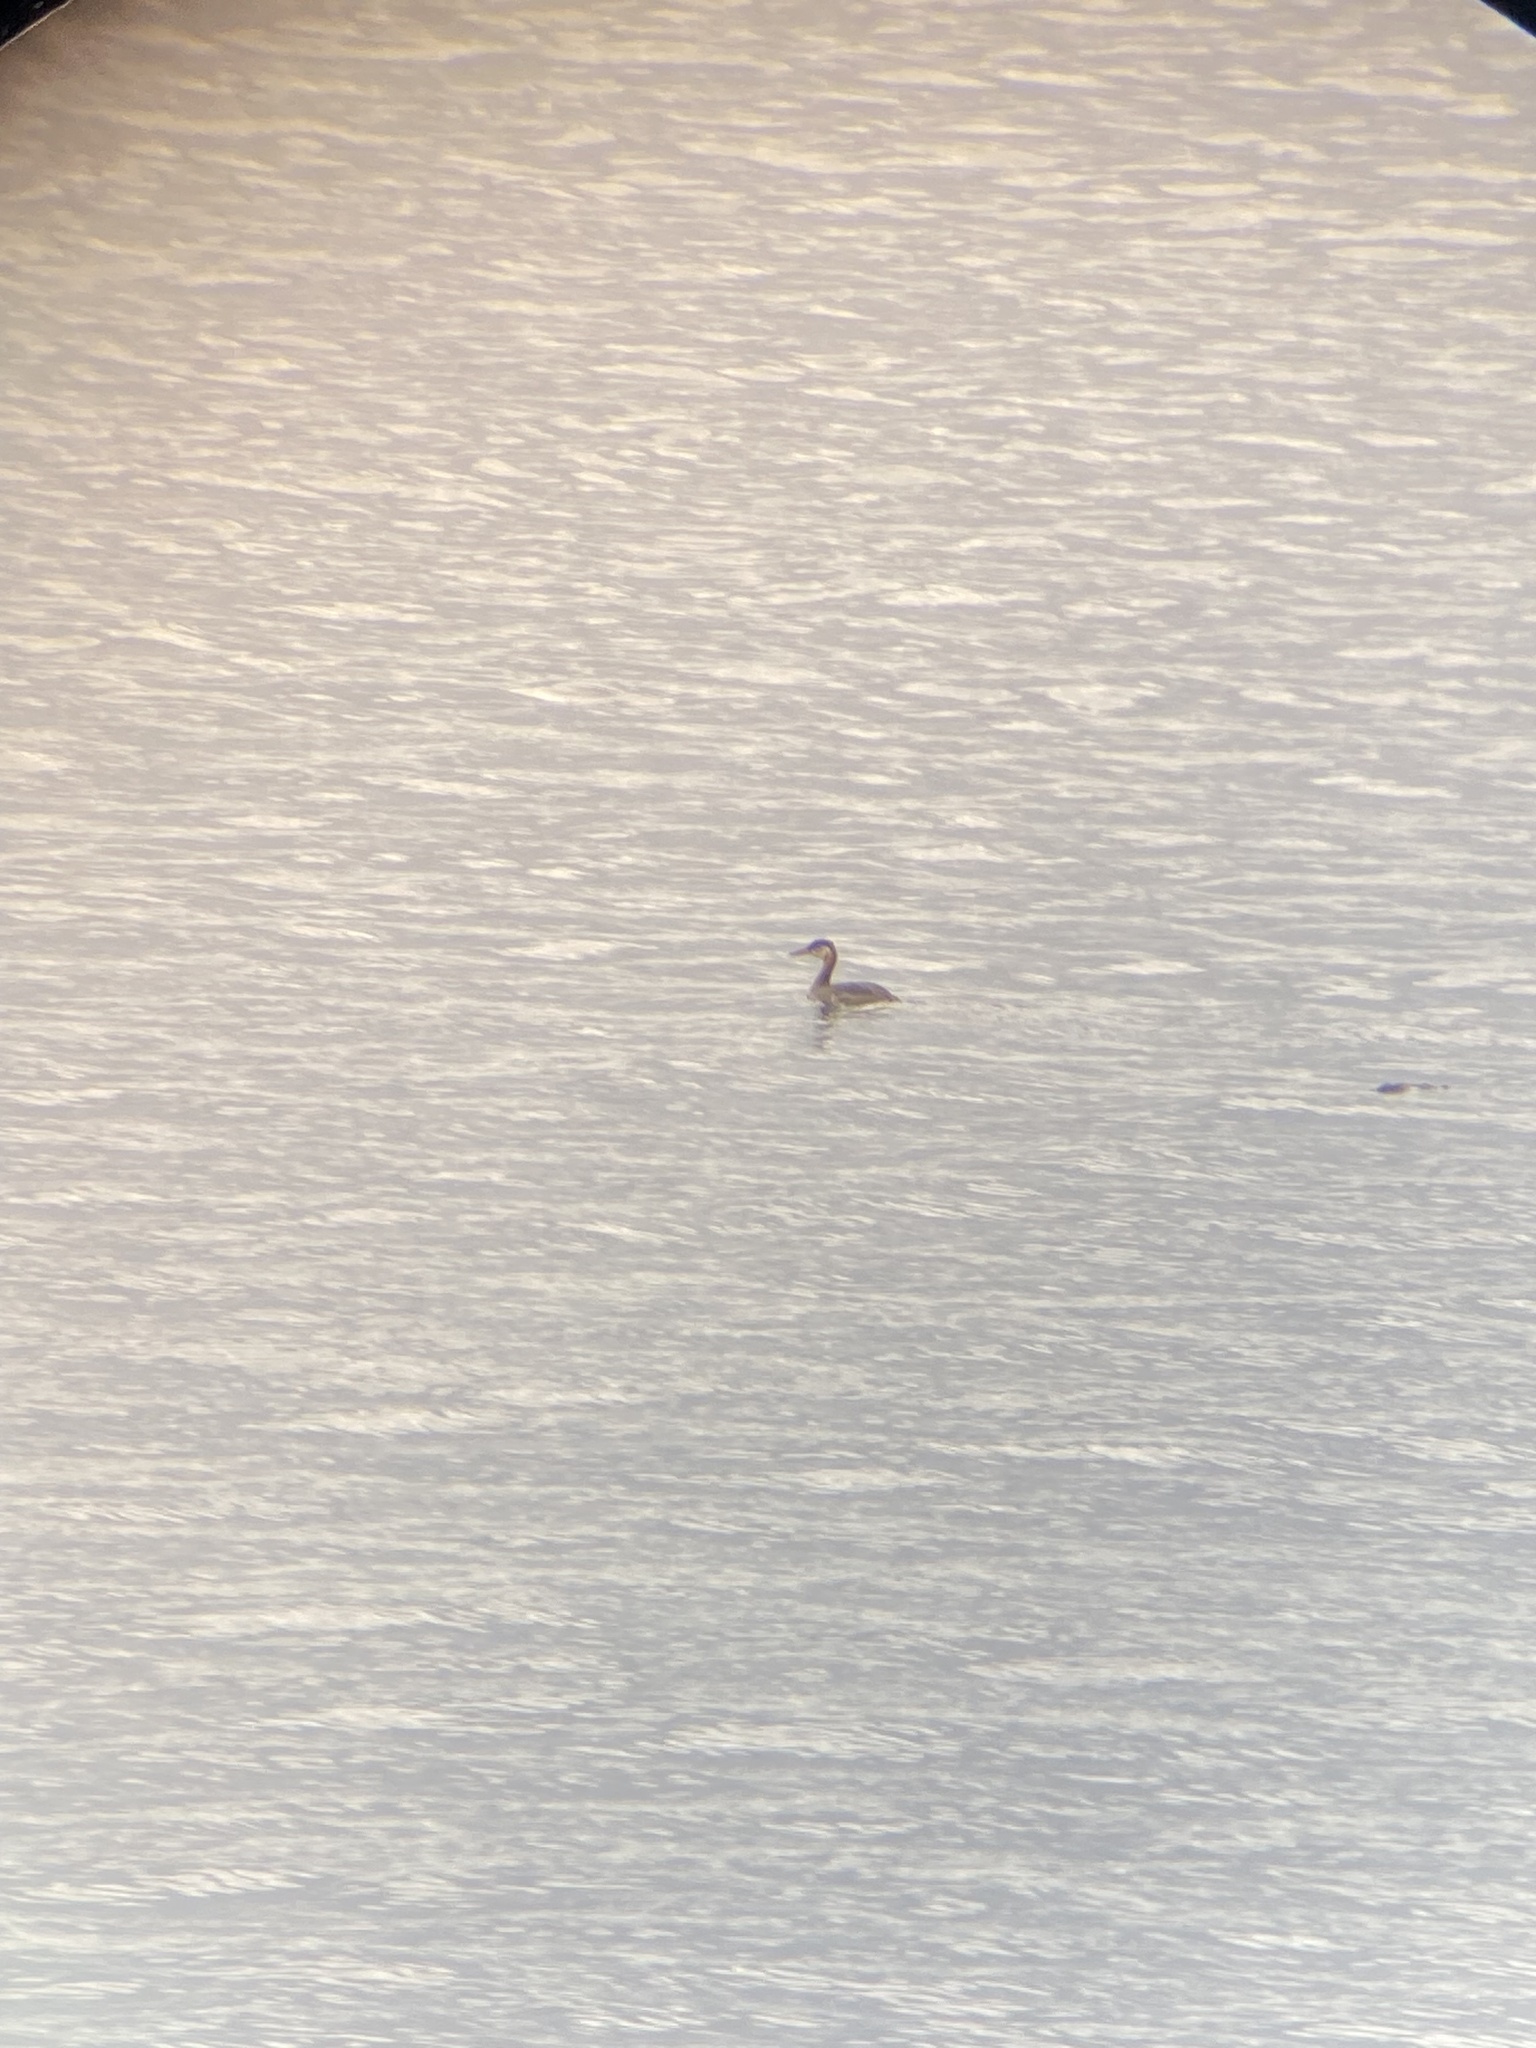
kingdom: Animalia
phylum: Chordata
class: Aves
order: Podicipediformes
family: Podicipedidae
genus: Podiceps
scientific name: Podiceps grisegena
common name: Red-necked grebe
